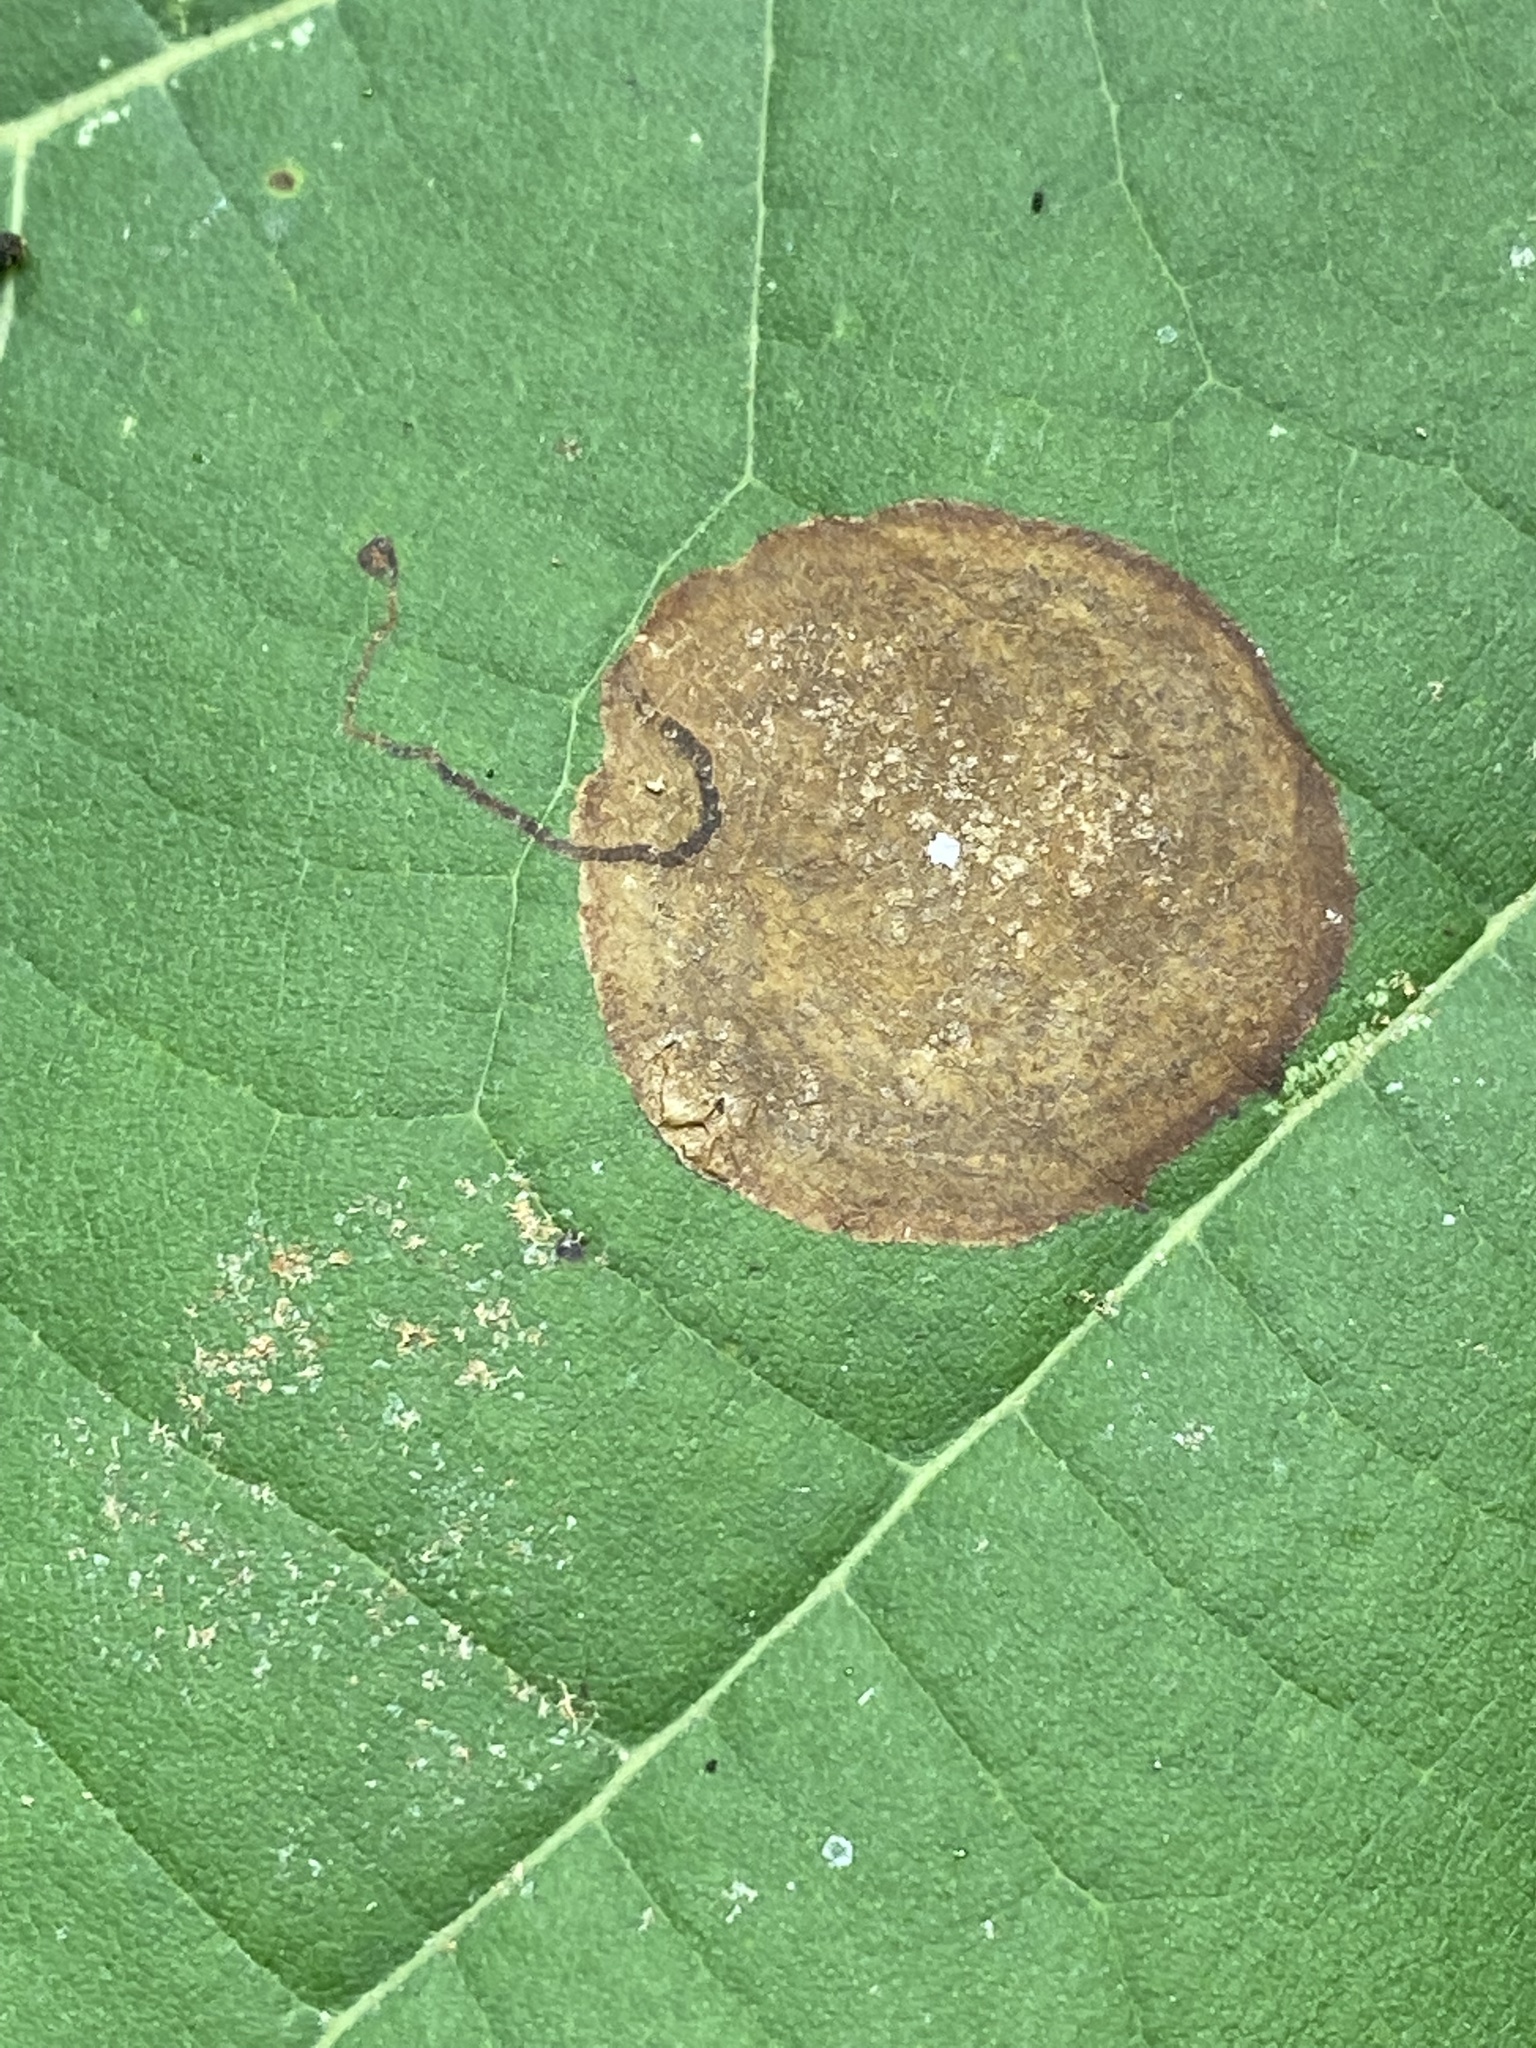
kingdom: Animalia
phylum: Arthropoda
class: Insecta
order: Lepidoptera
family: Nepticulidae
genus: Ectoedemia
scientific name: Ectoedemia platanella
